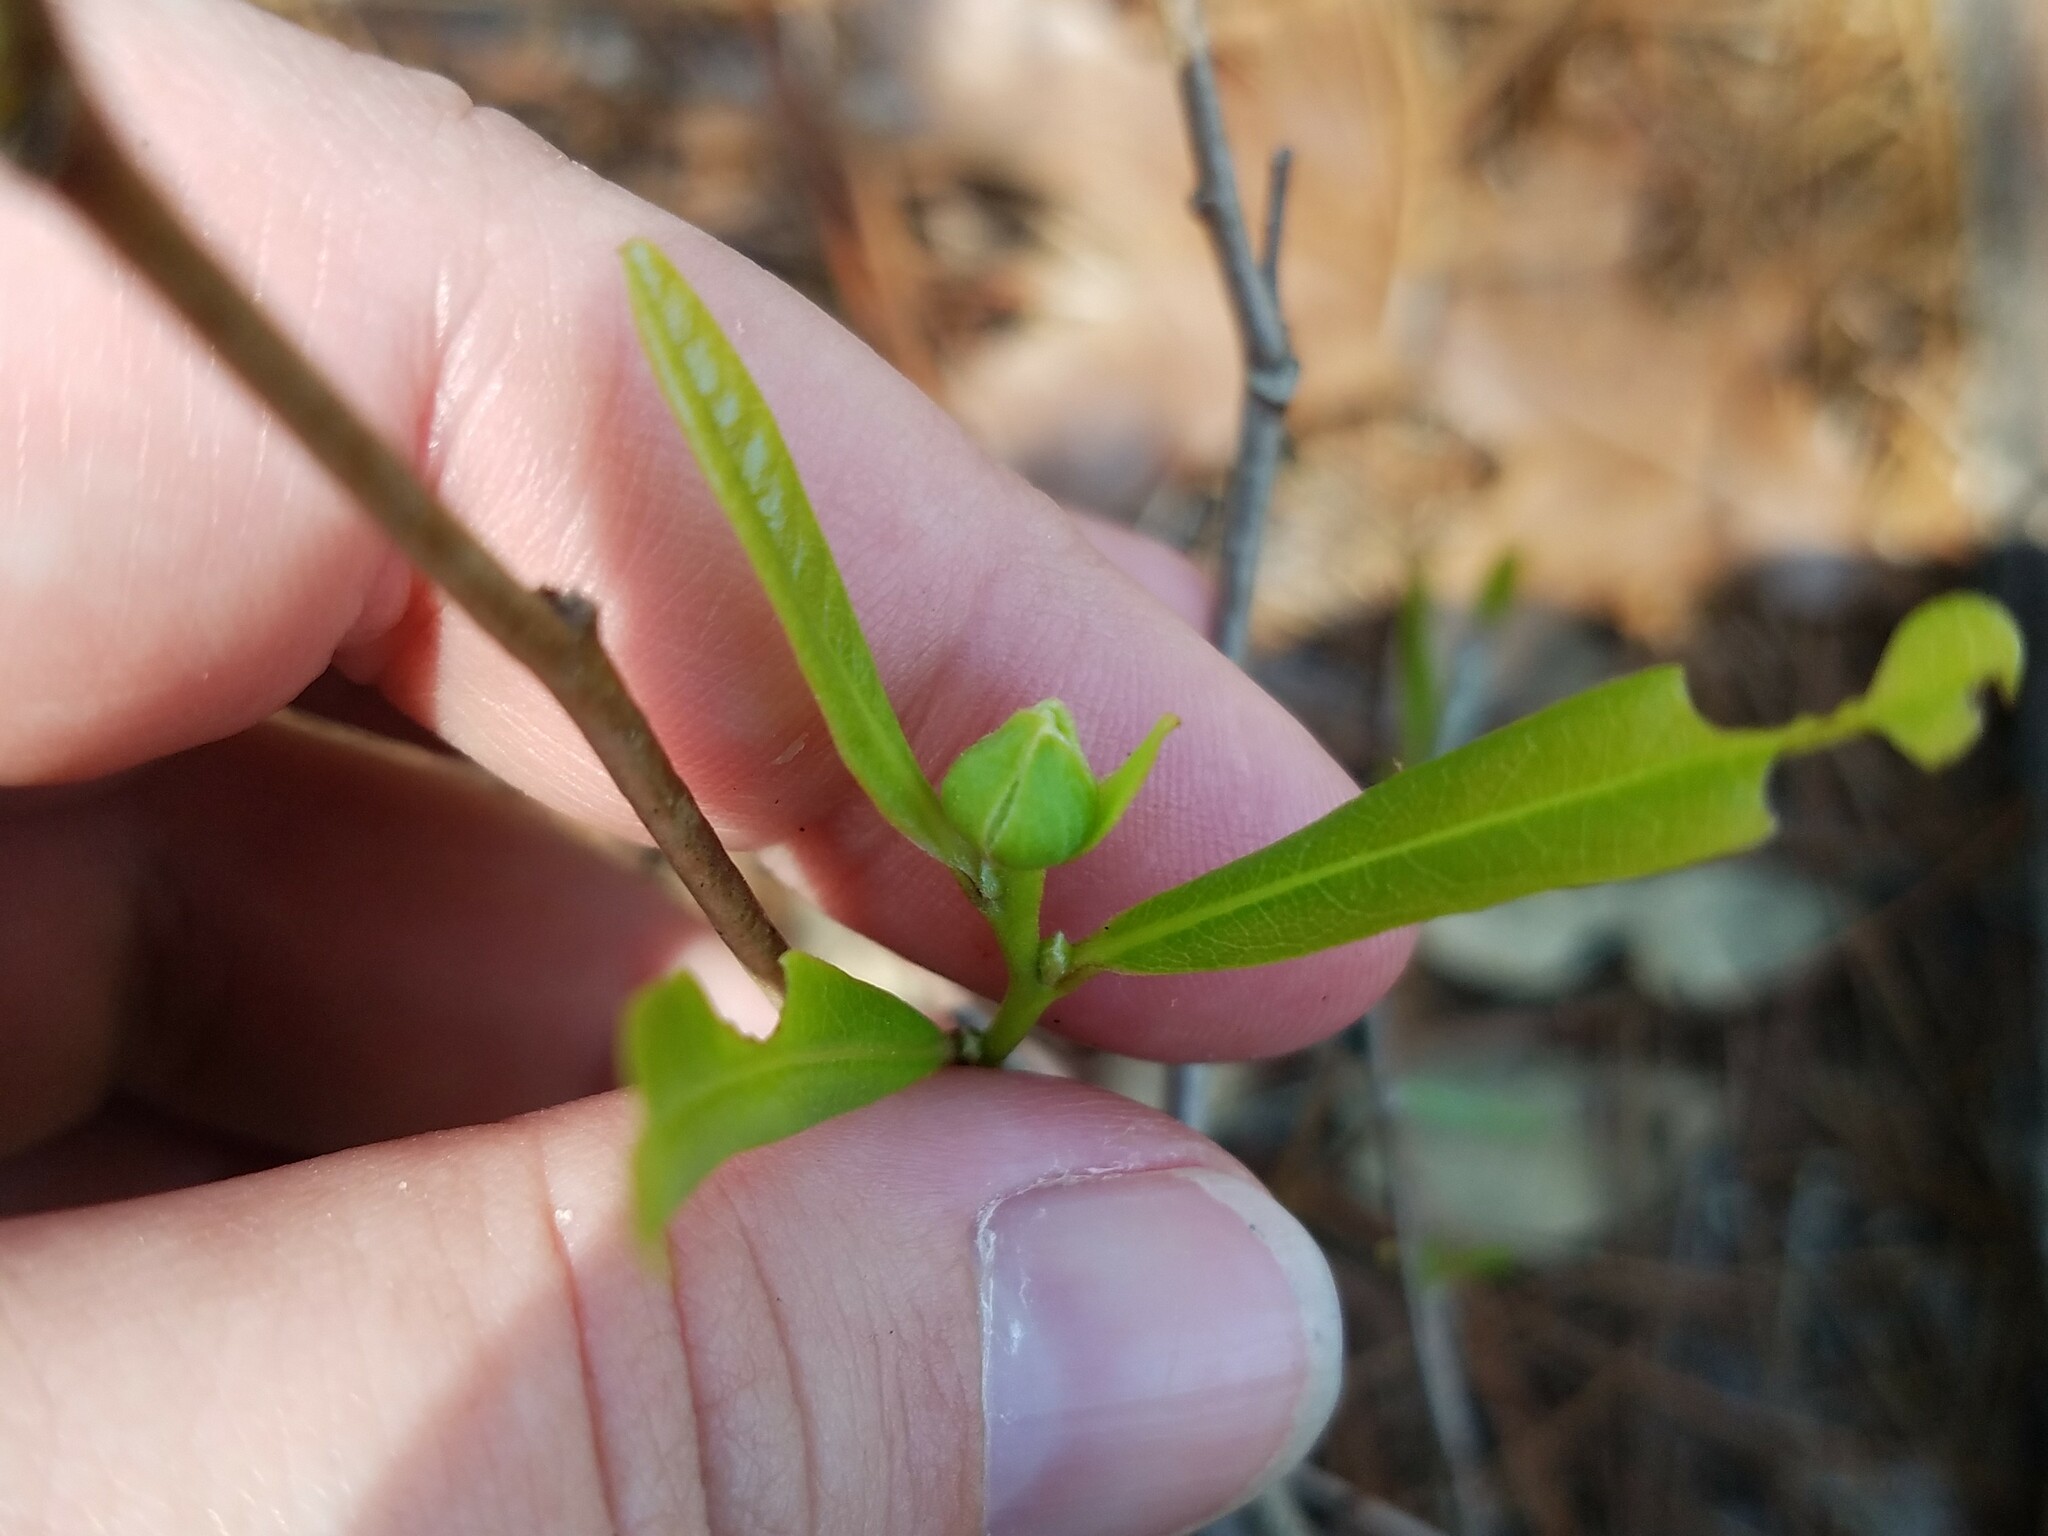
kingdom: Plantae
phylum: Tracheophyta
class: Magnoliopsida
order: Magnoliales
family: Annonaceae
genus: Asimina
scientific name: Asimina longifolia
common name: Polecatbush
